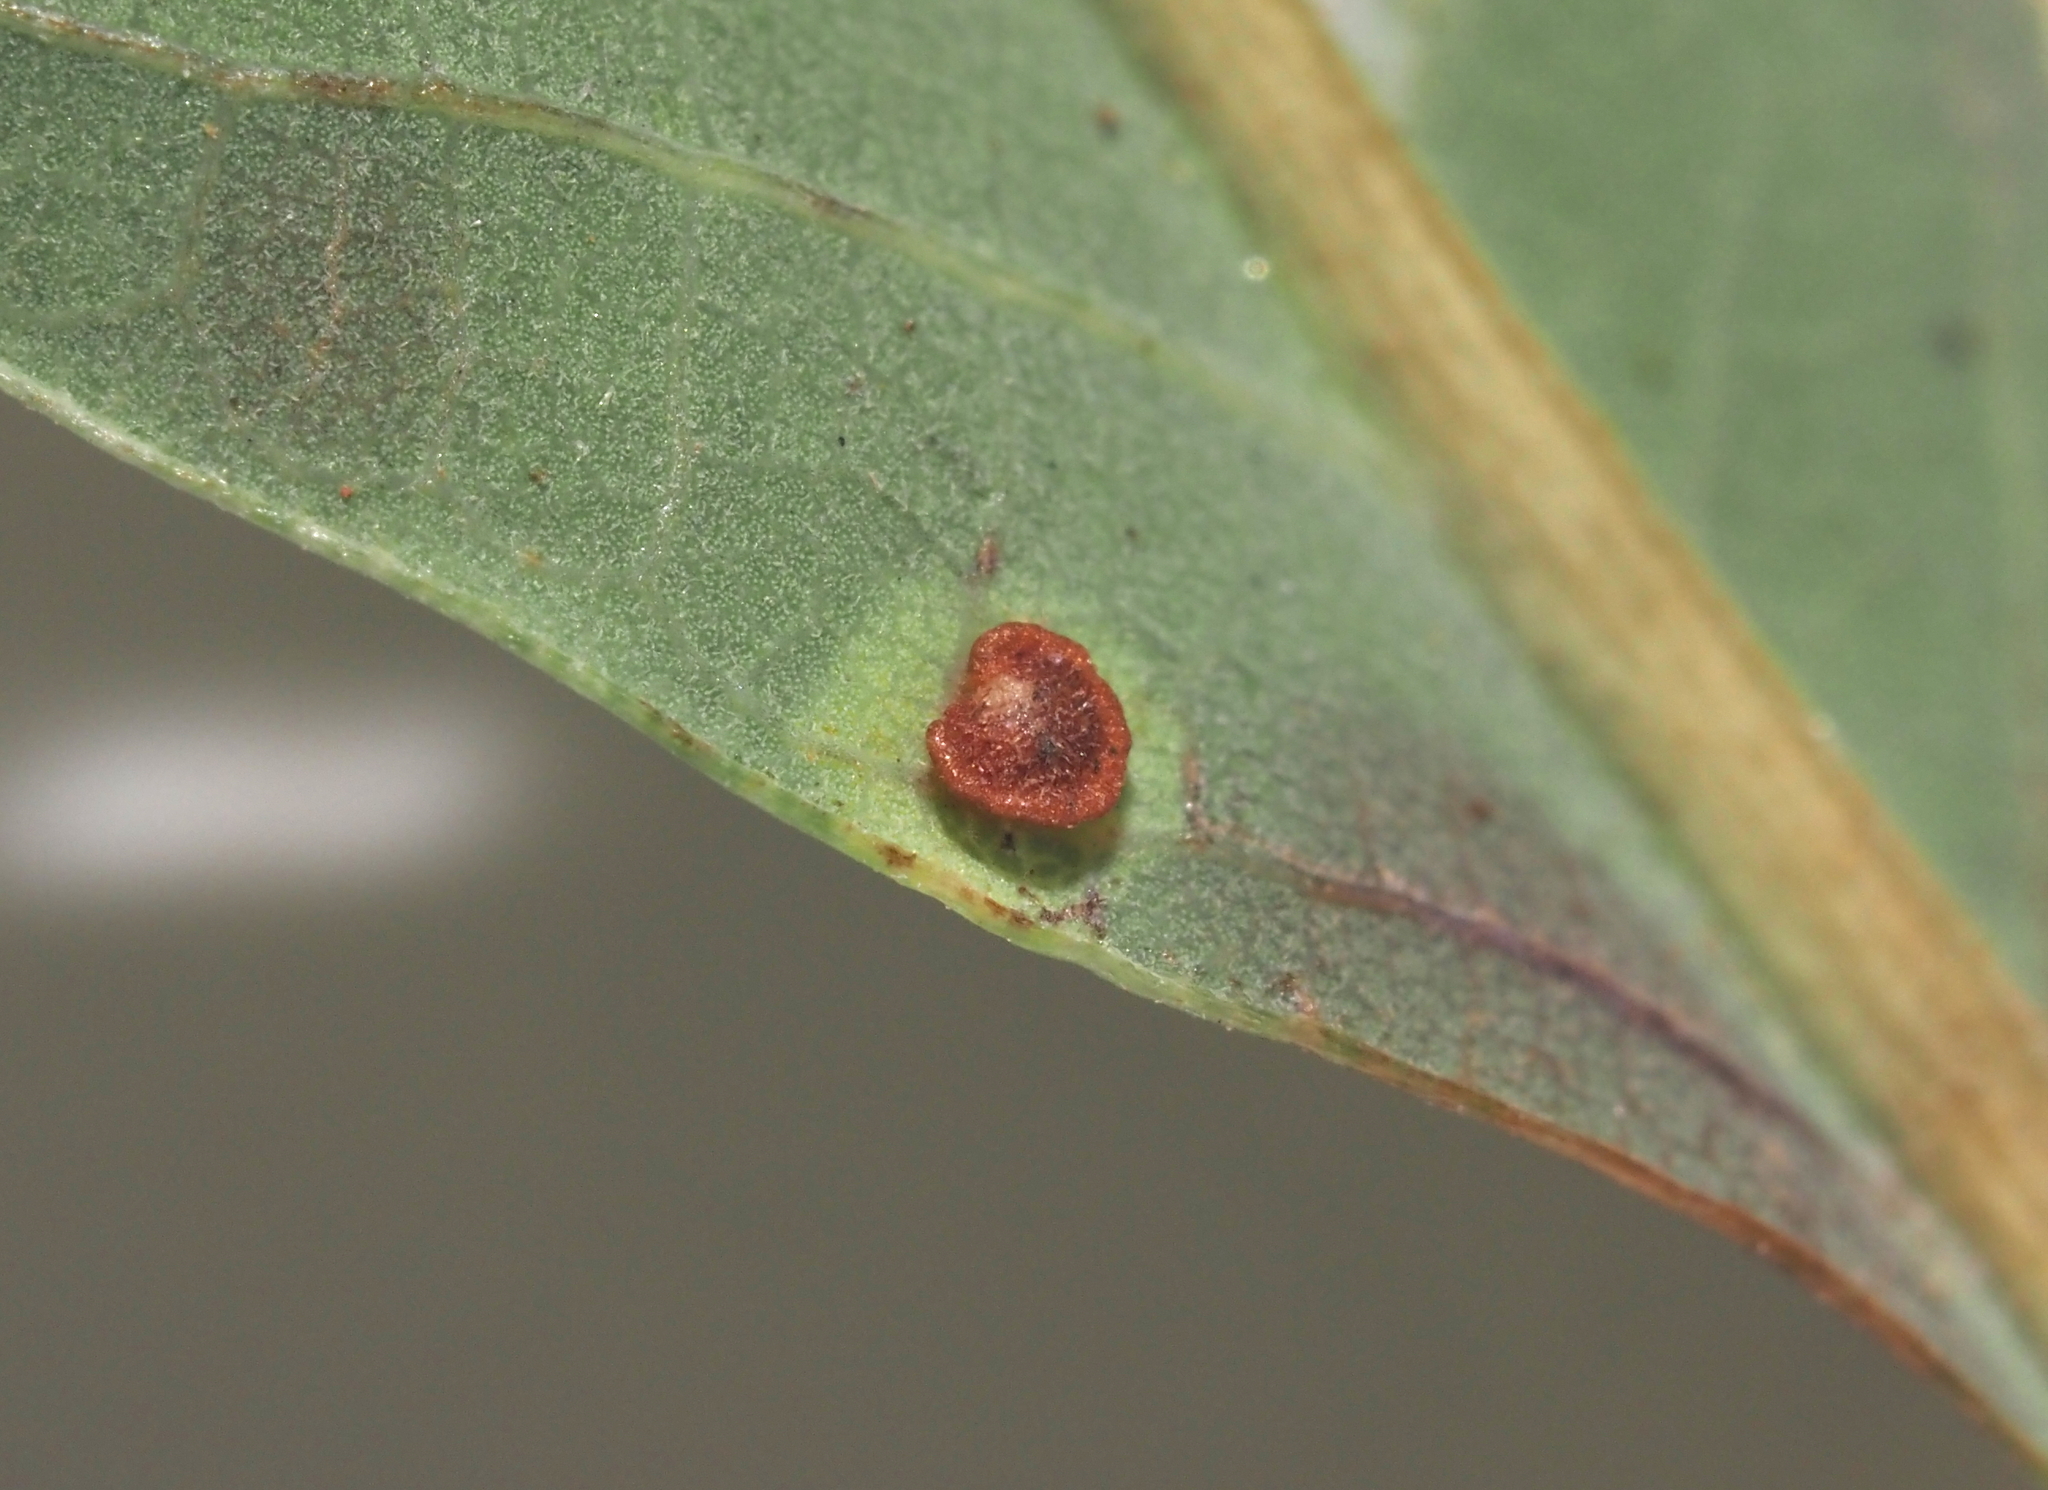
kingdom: Animalia
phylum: Arthropoda
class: Insecta
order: Hymenoptera
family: Cynipidae
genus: Neuroterus
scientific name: Neuroterus
